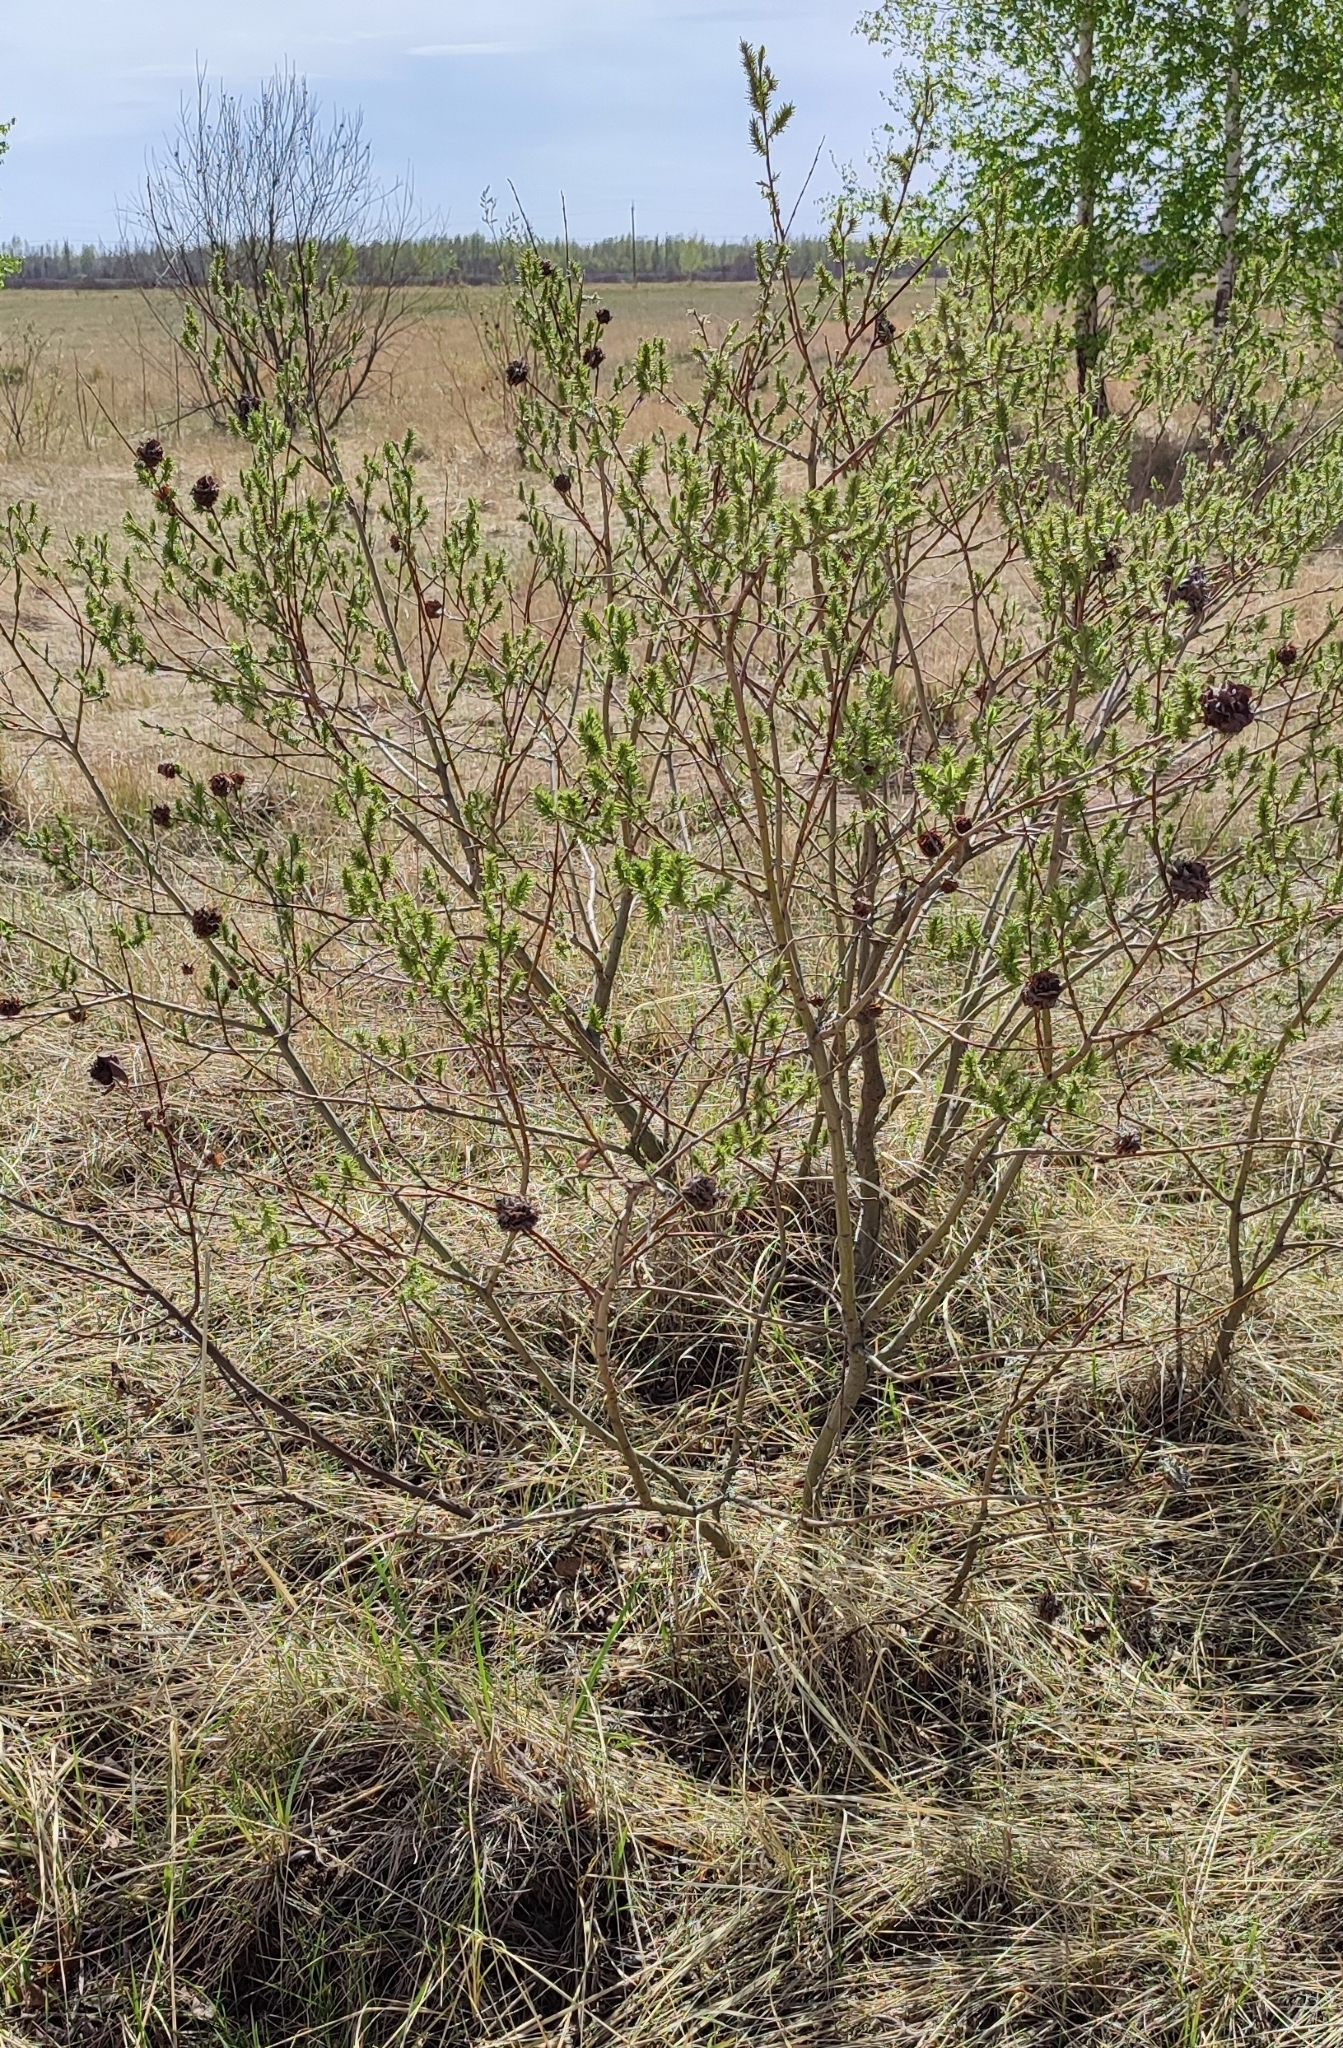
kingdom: Plantae
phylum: Tracheophyta
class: Magnoliopsida
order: Malpighiales
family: Salicaceae
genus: Salix
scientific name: Salix cinerea
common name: Common sallow
